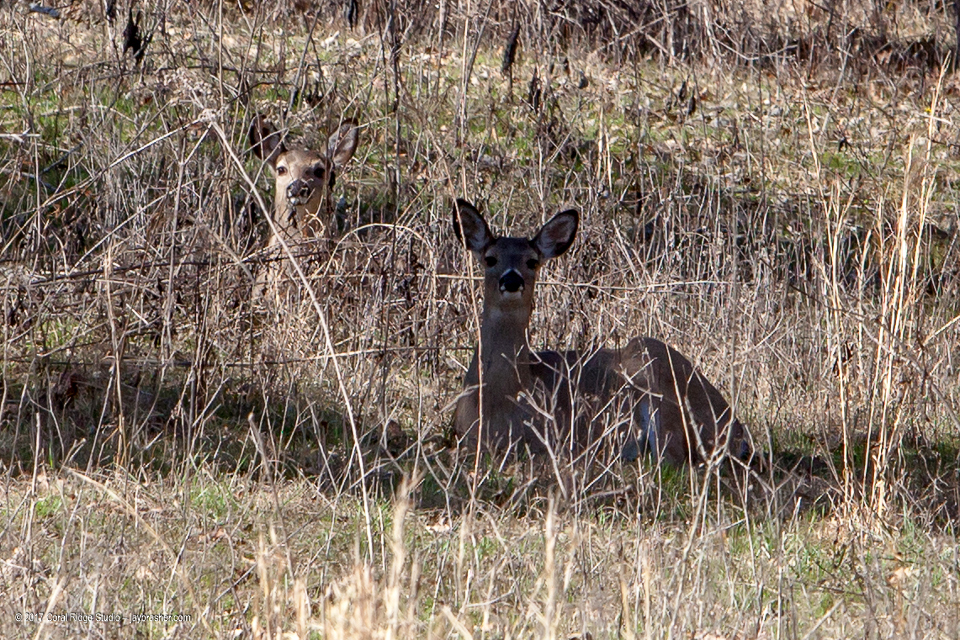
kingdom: Animalia
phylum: Chordata
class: Mammalia
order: Artiodactyla
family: Cervidae
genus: Odocoileus
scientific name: Odocoileus virginianus
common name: White-tailed deer
